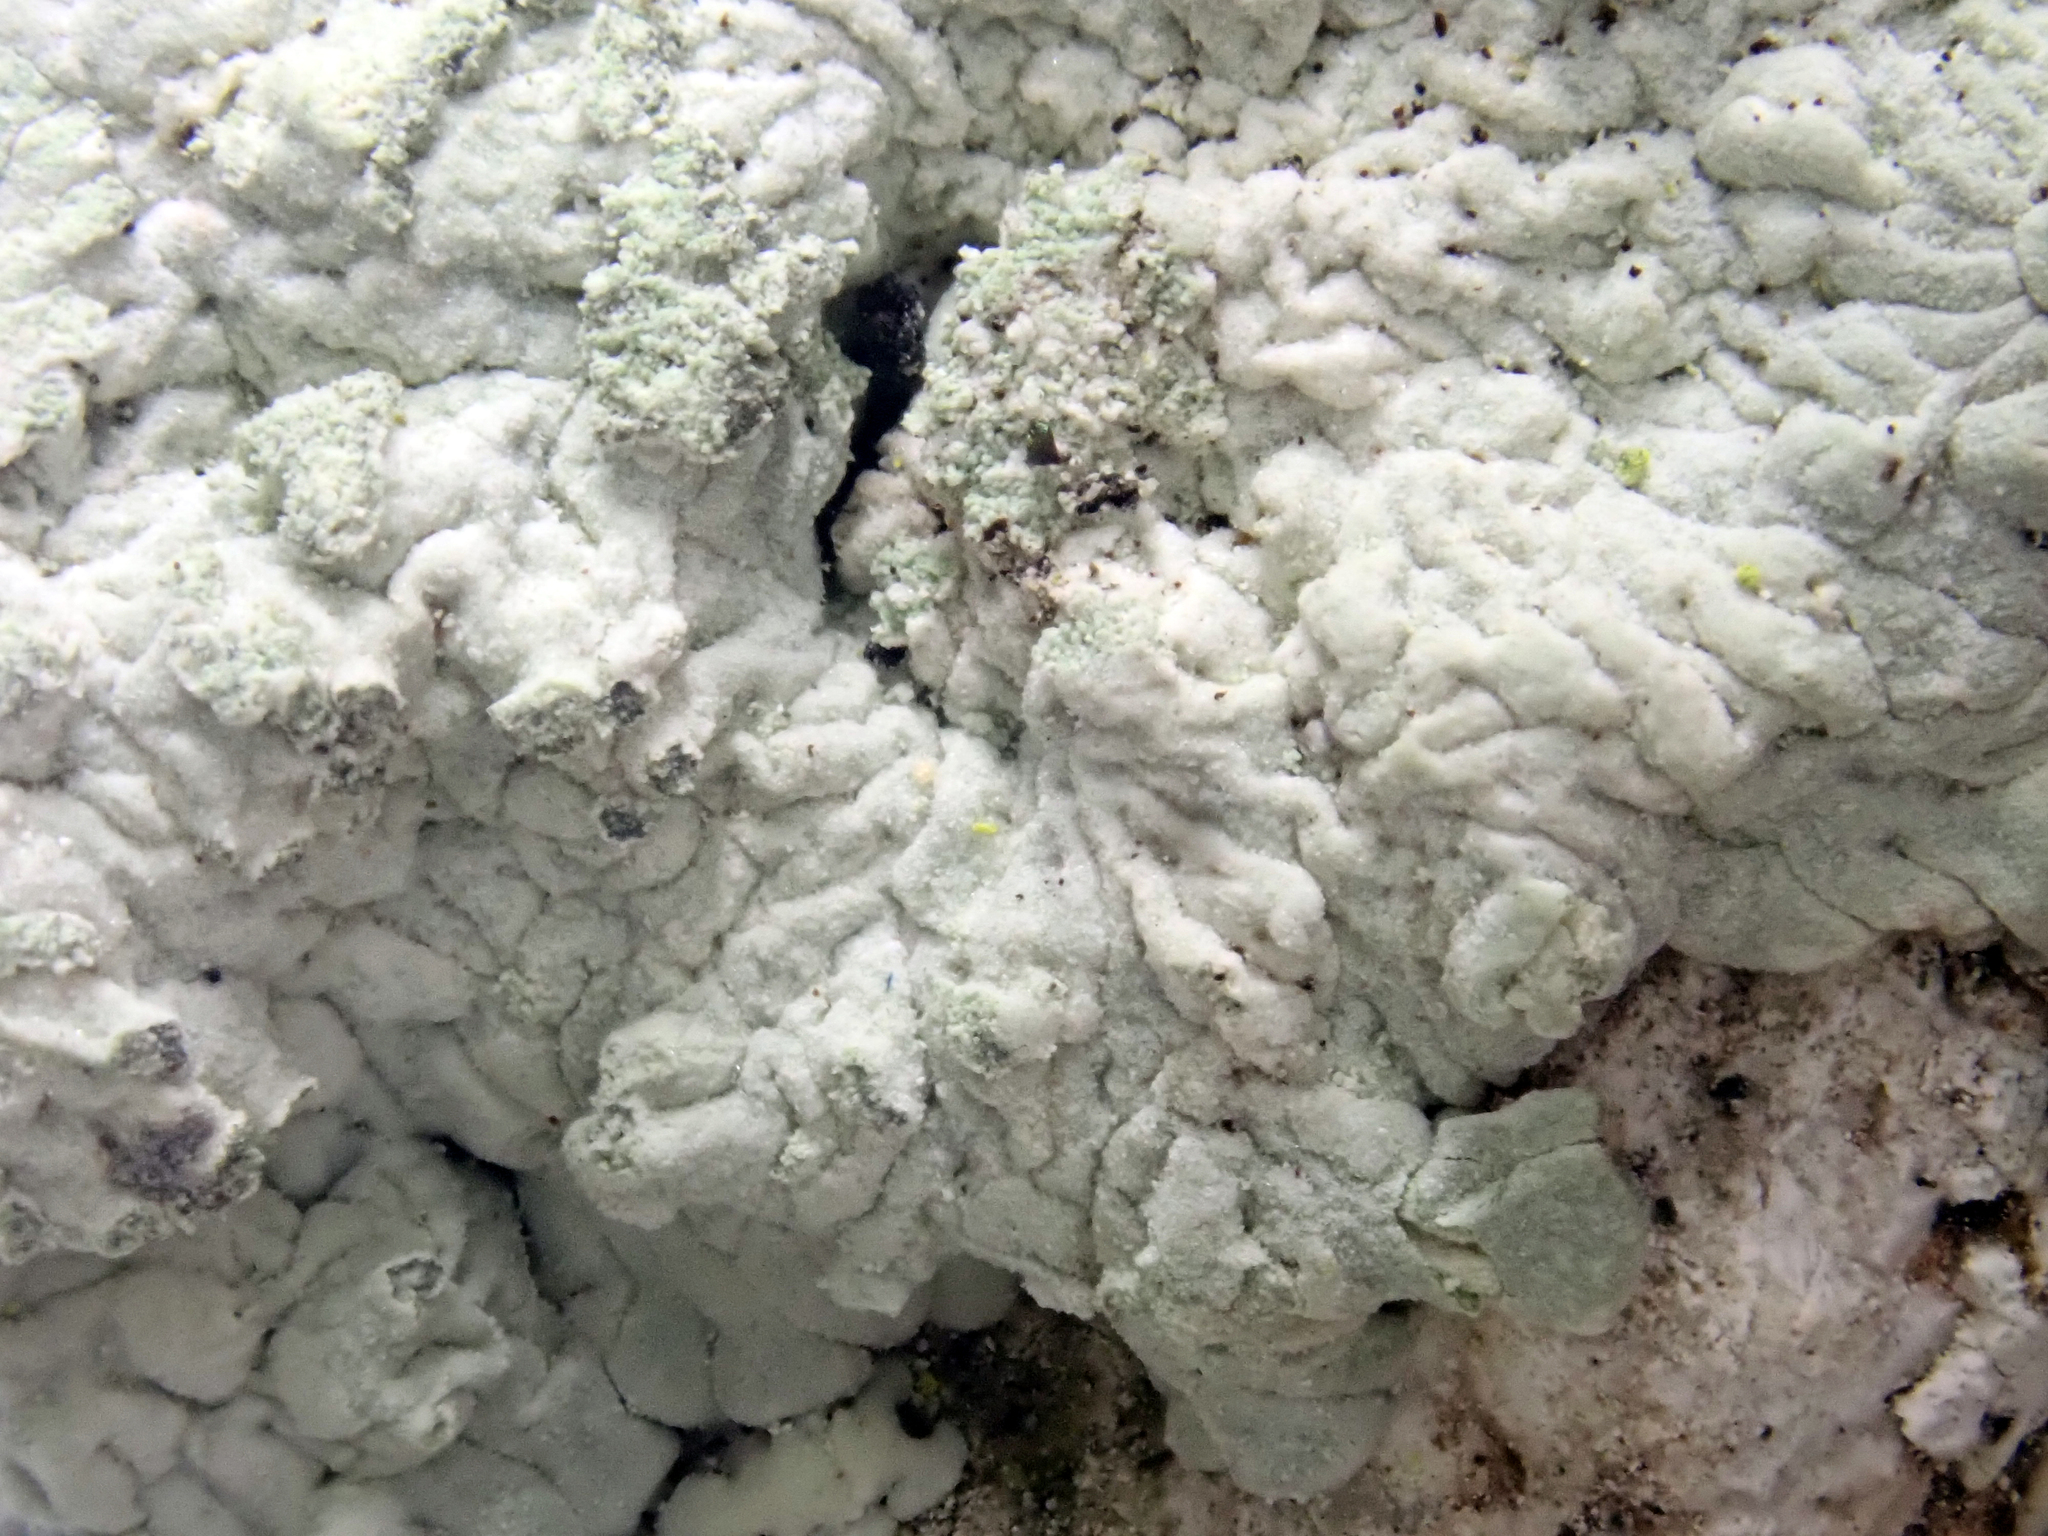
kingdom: Fungi
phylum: Ascomycota
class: Lecanoromycetes
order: Caliciales
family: Caliciaceae
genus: Diploicia
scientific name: Diploicia canescens
